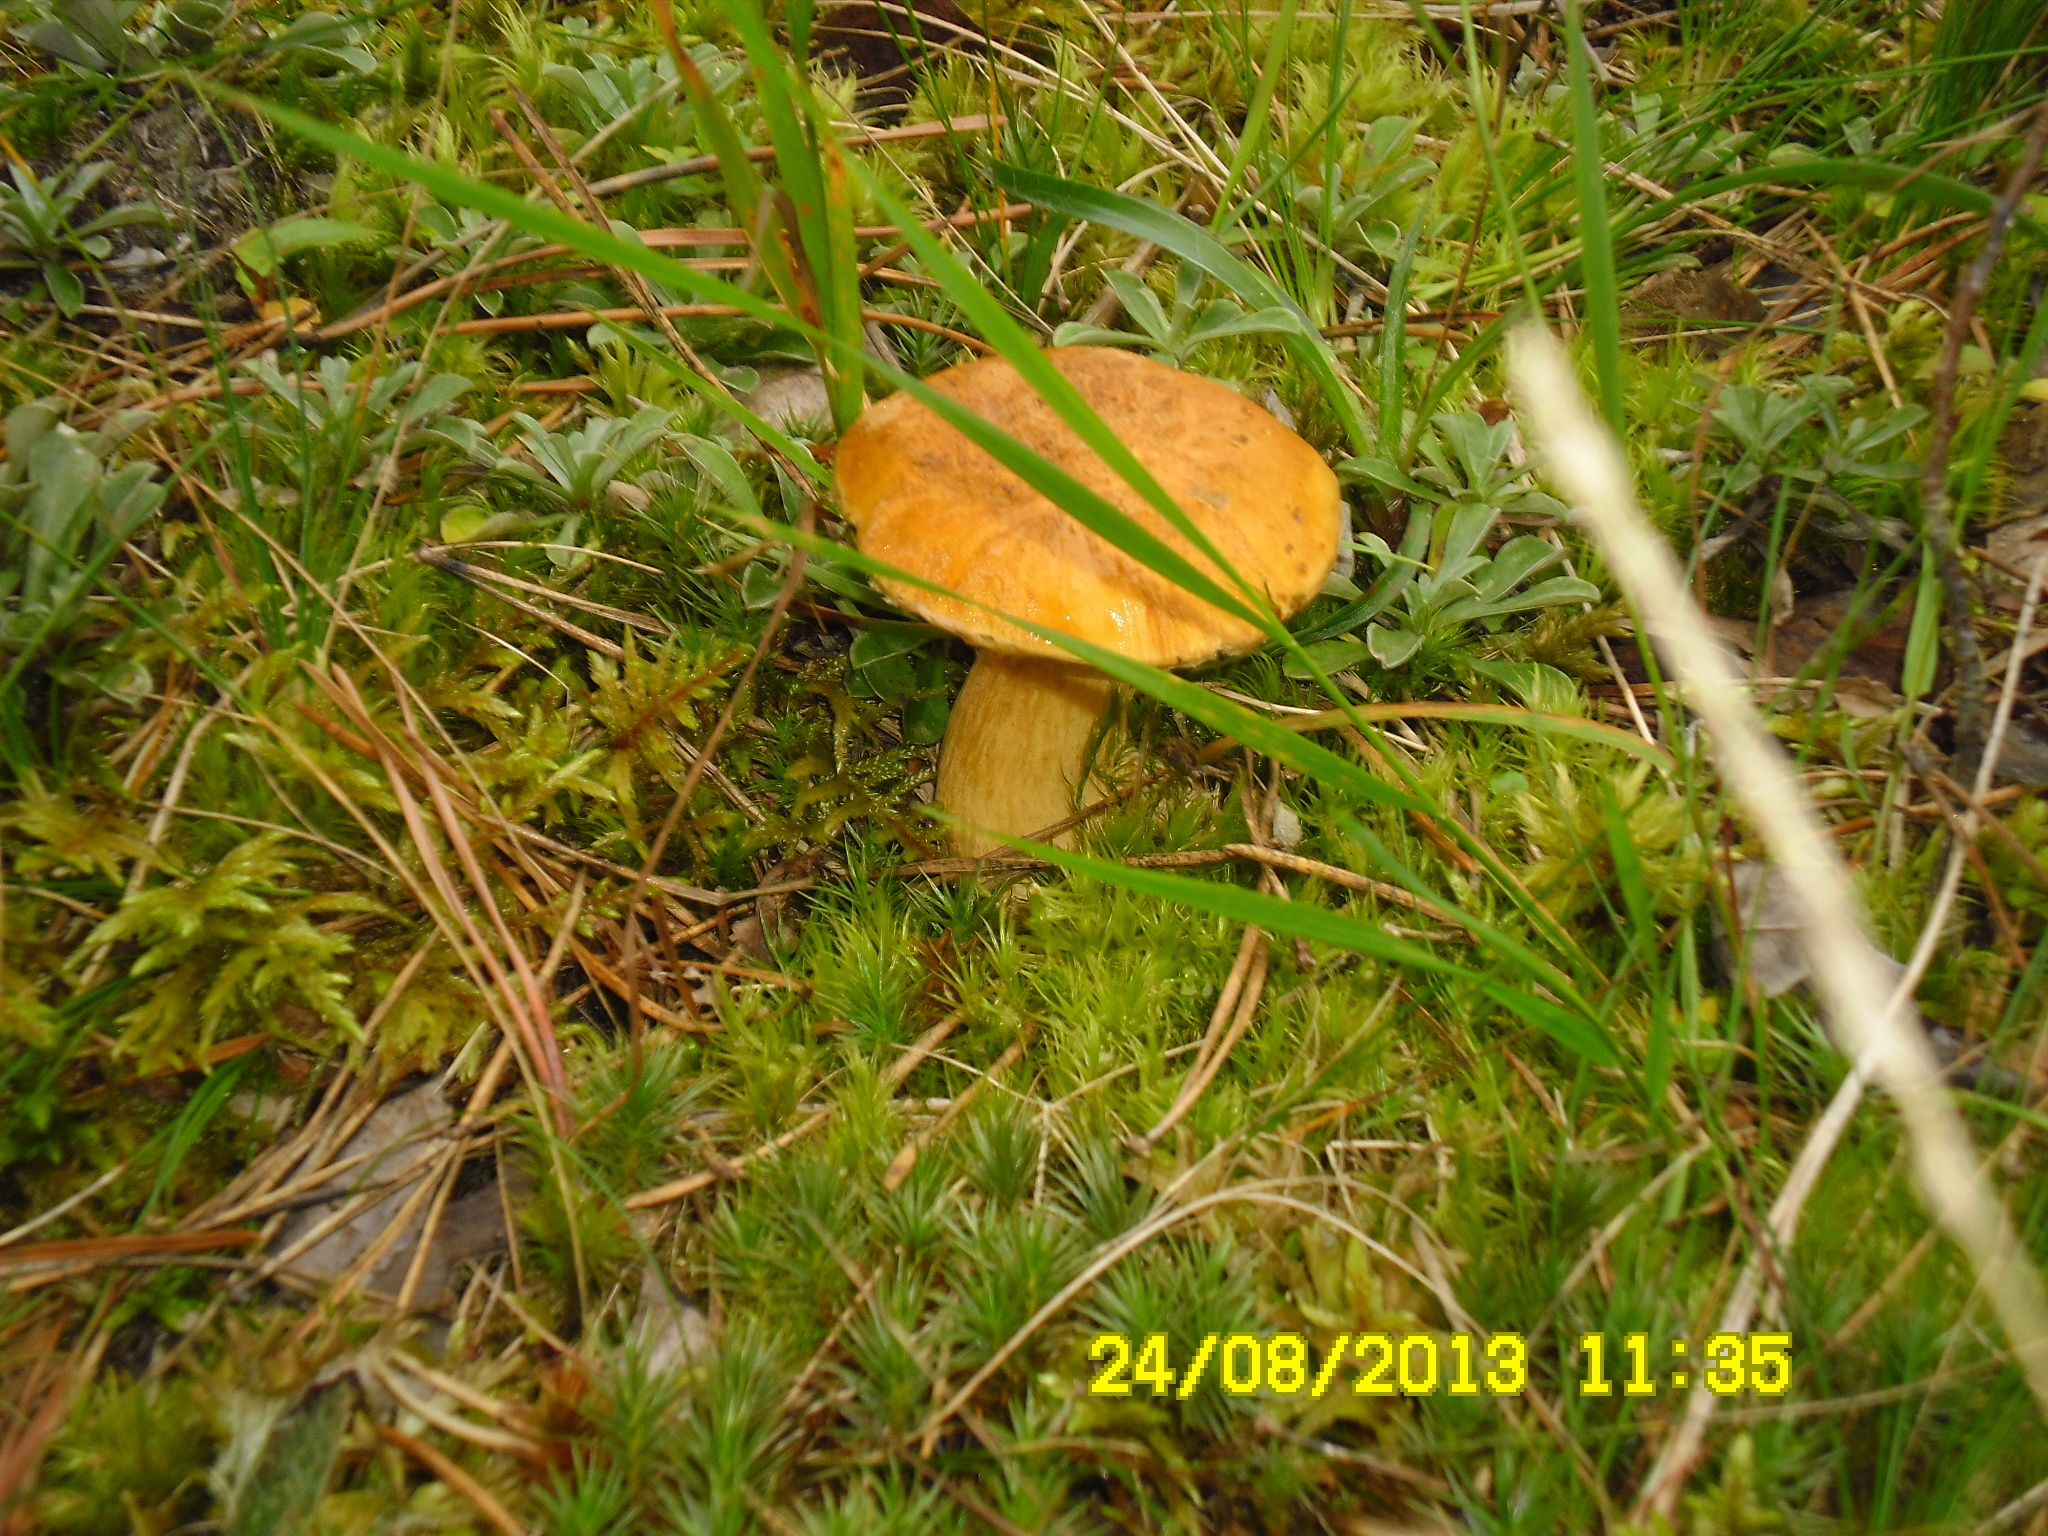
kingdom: Fungi
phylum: Basidiomycota
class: Agaricomycetes
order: Boletales
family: Suillaceae
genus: Suillus
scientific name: Suillus variegatus
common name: Velvet bolete
